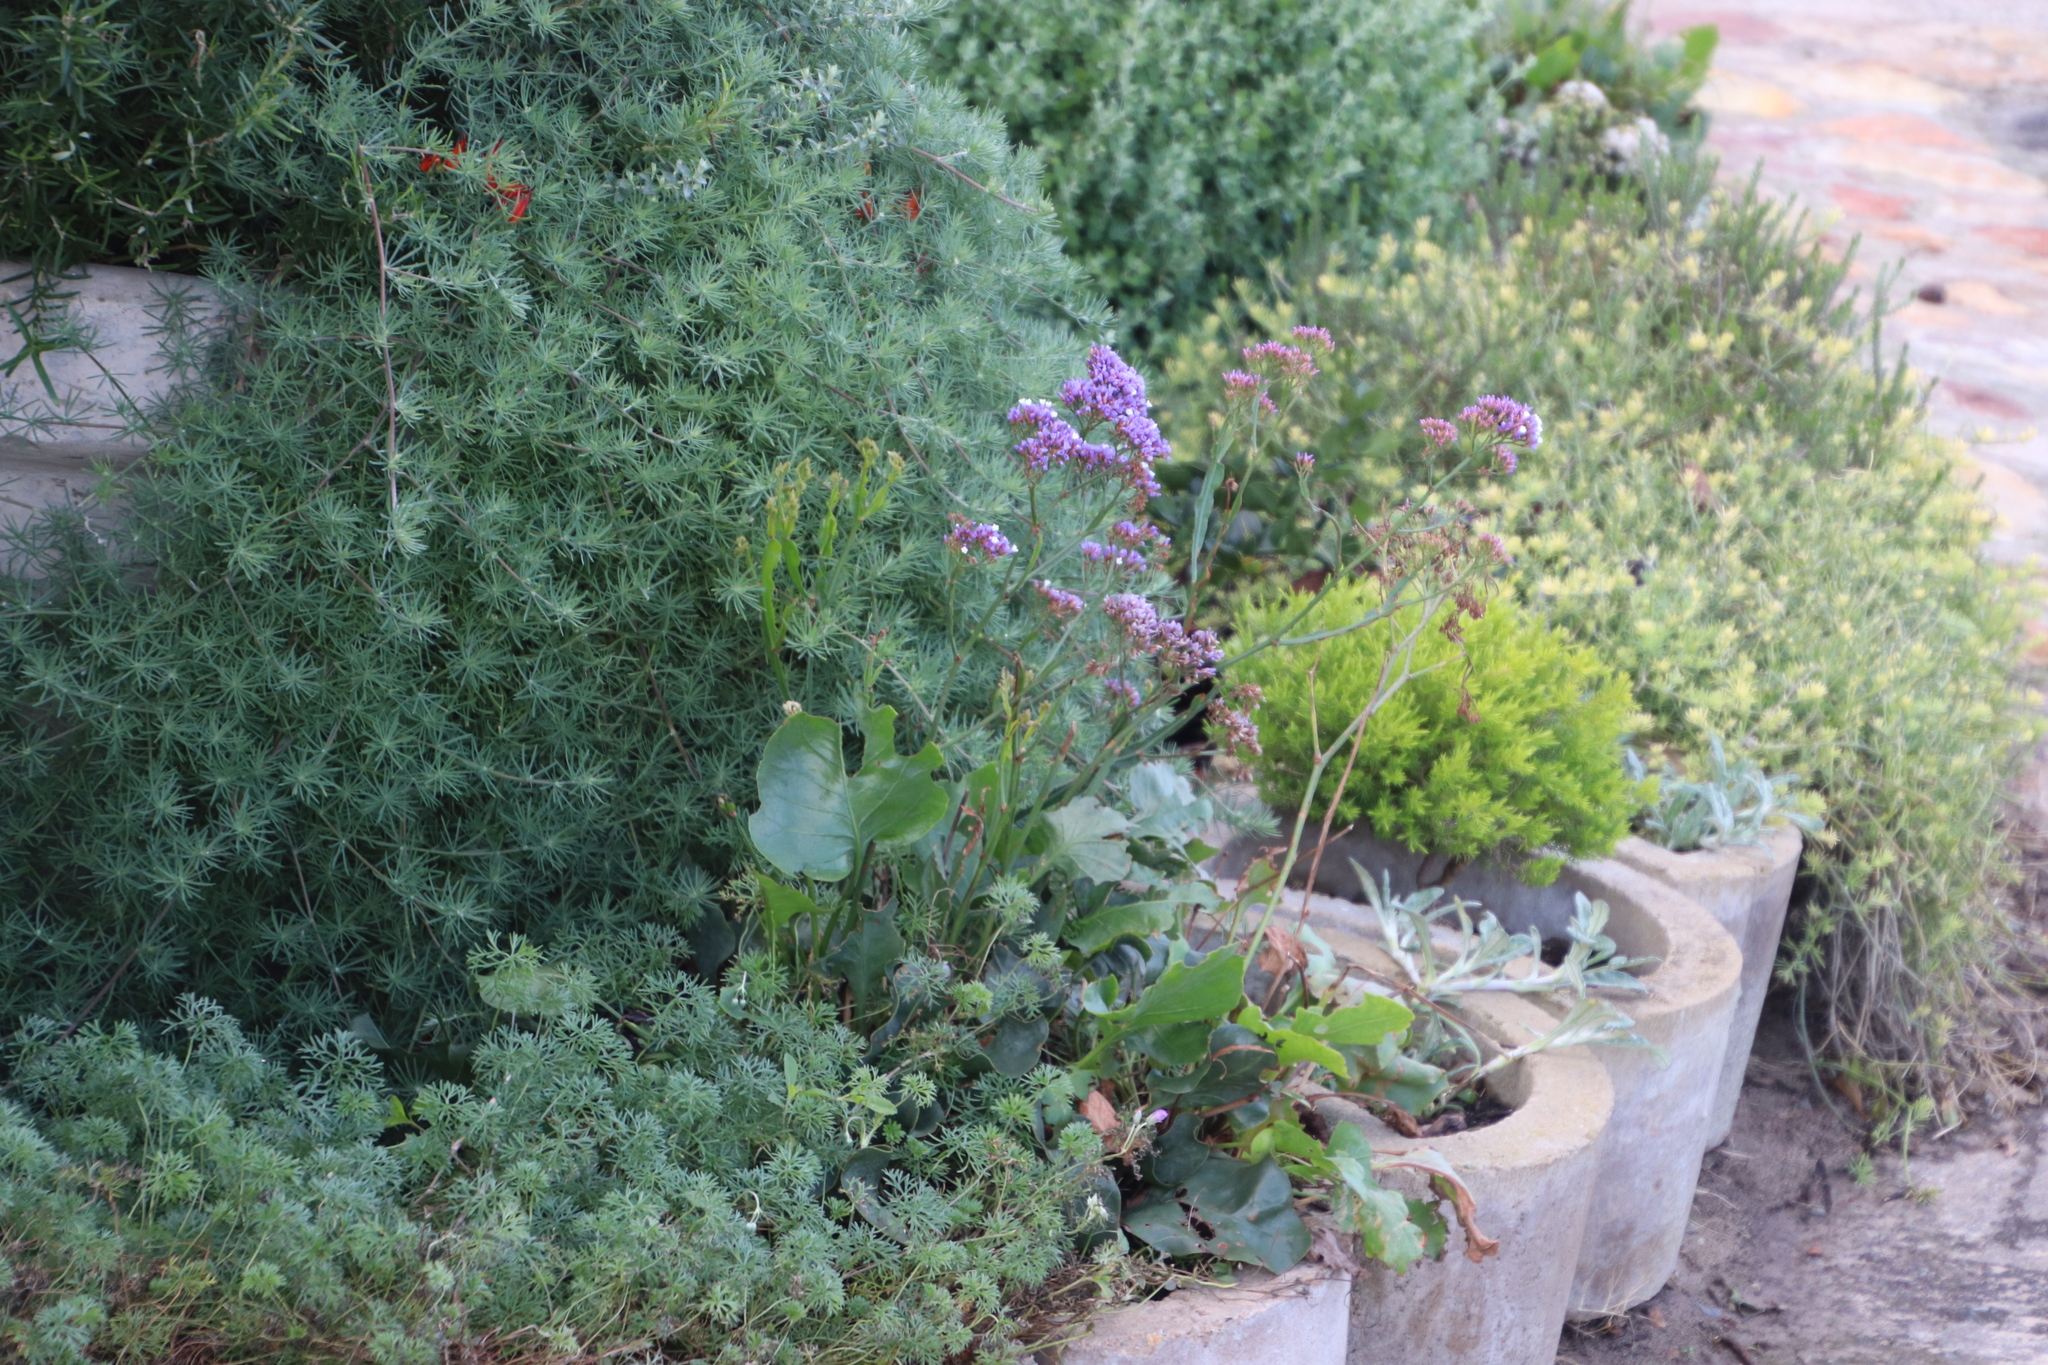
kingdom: Plantae
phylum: Tracheophyta
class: Magnoliopsida
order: Caryophyllales
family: Plumbaginaceae
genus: Limonium
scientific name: Limonium perezii
